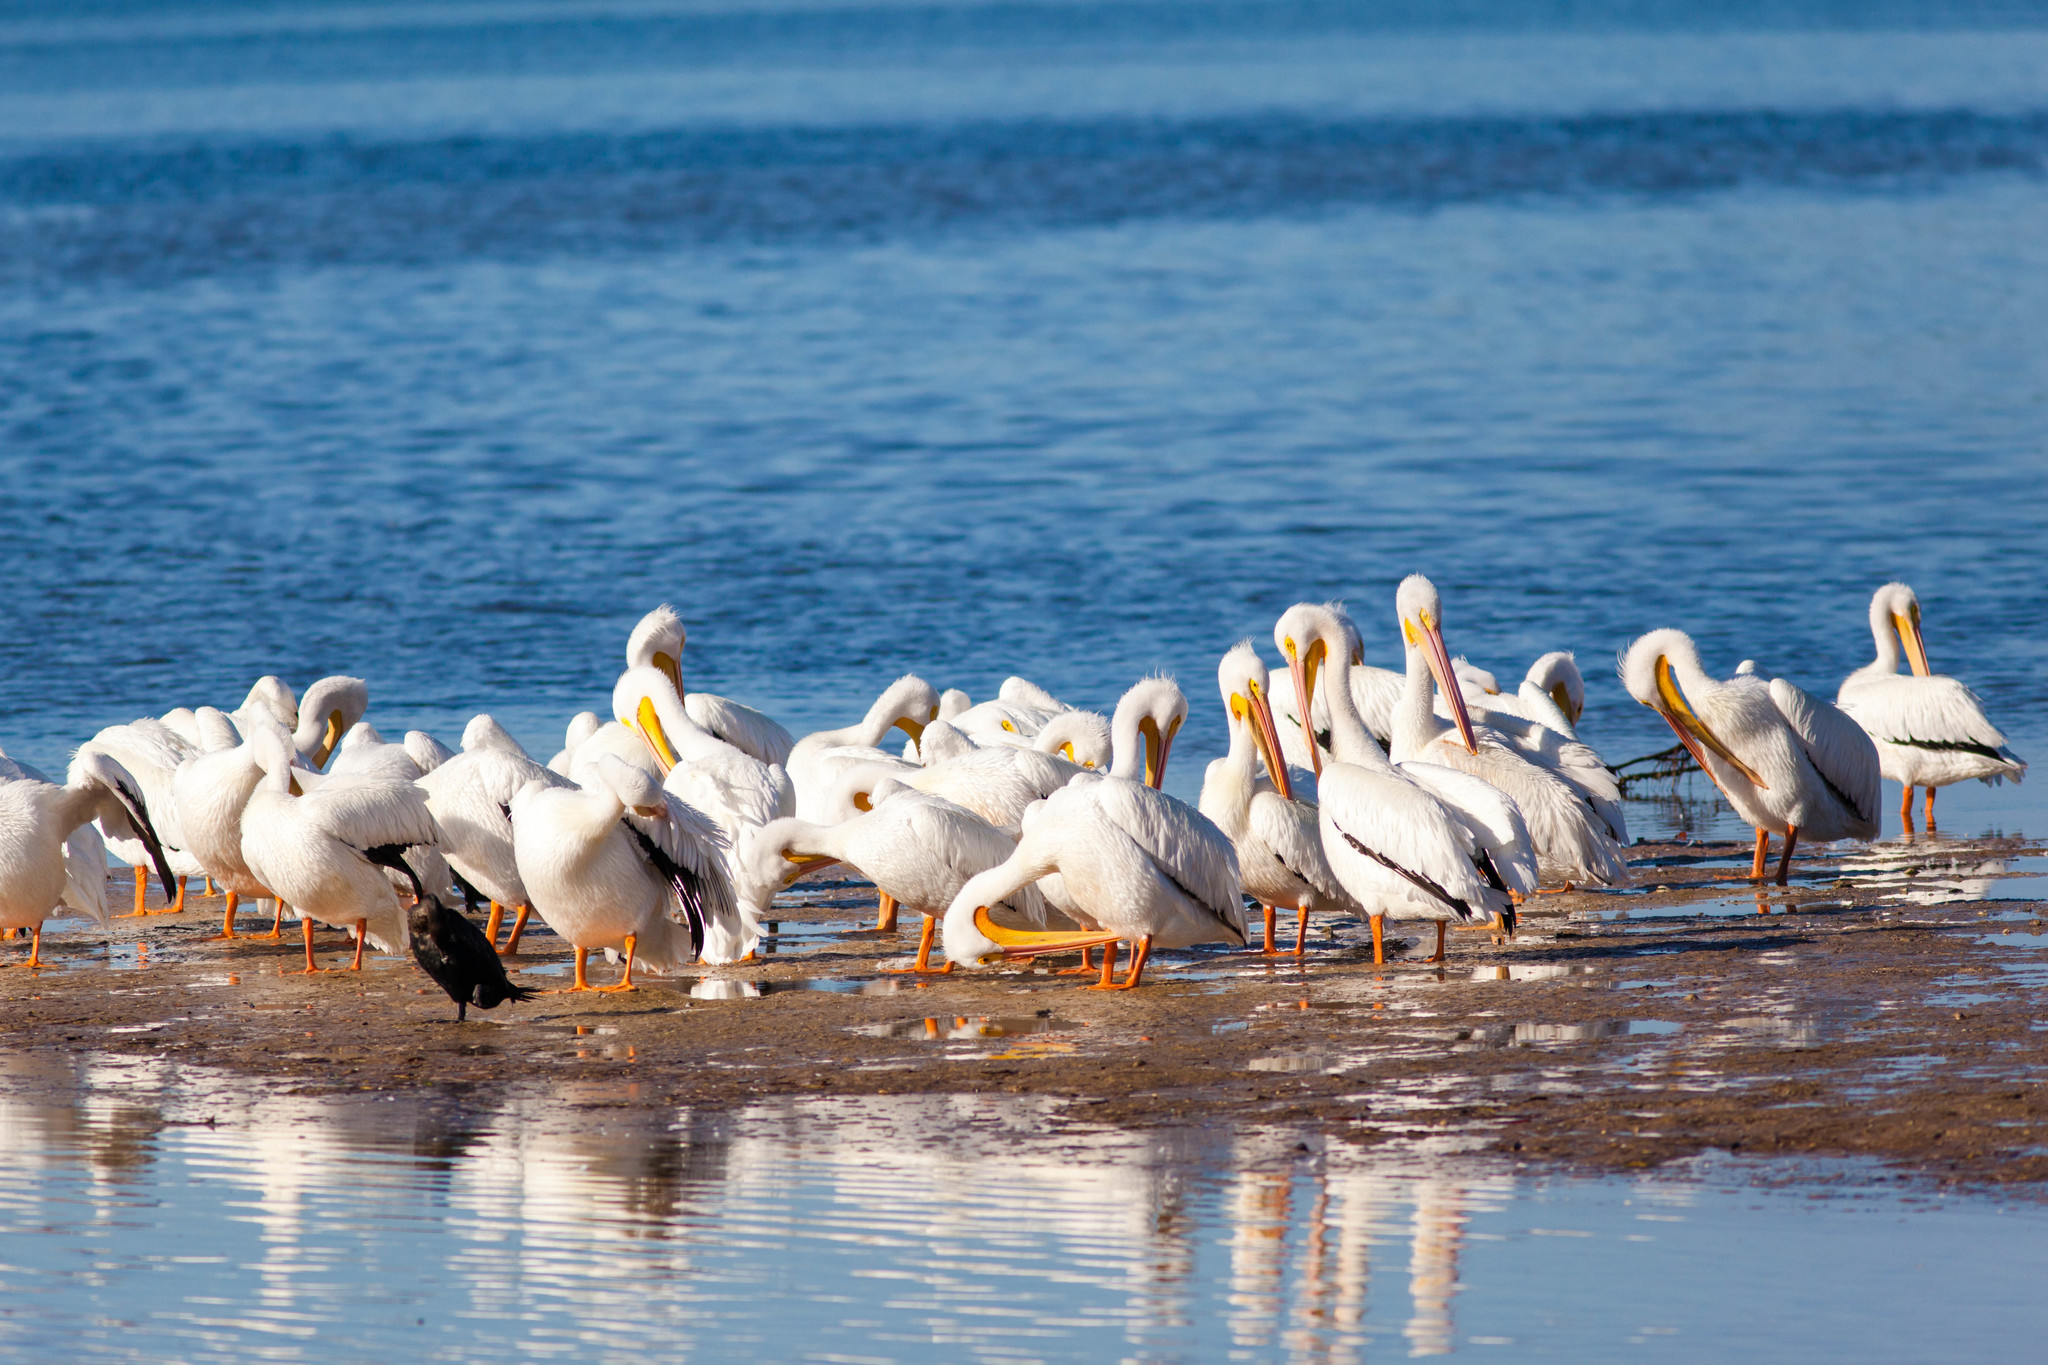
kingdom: Animalia
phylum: Chordata
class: Aves
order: Pelecaniformes
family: Pelecanidae
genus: Pelecanus
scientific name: Pelecanus erythrorhynchos
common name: American white pelican
